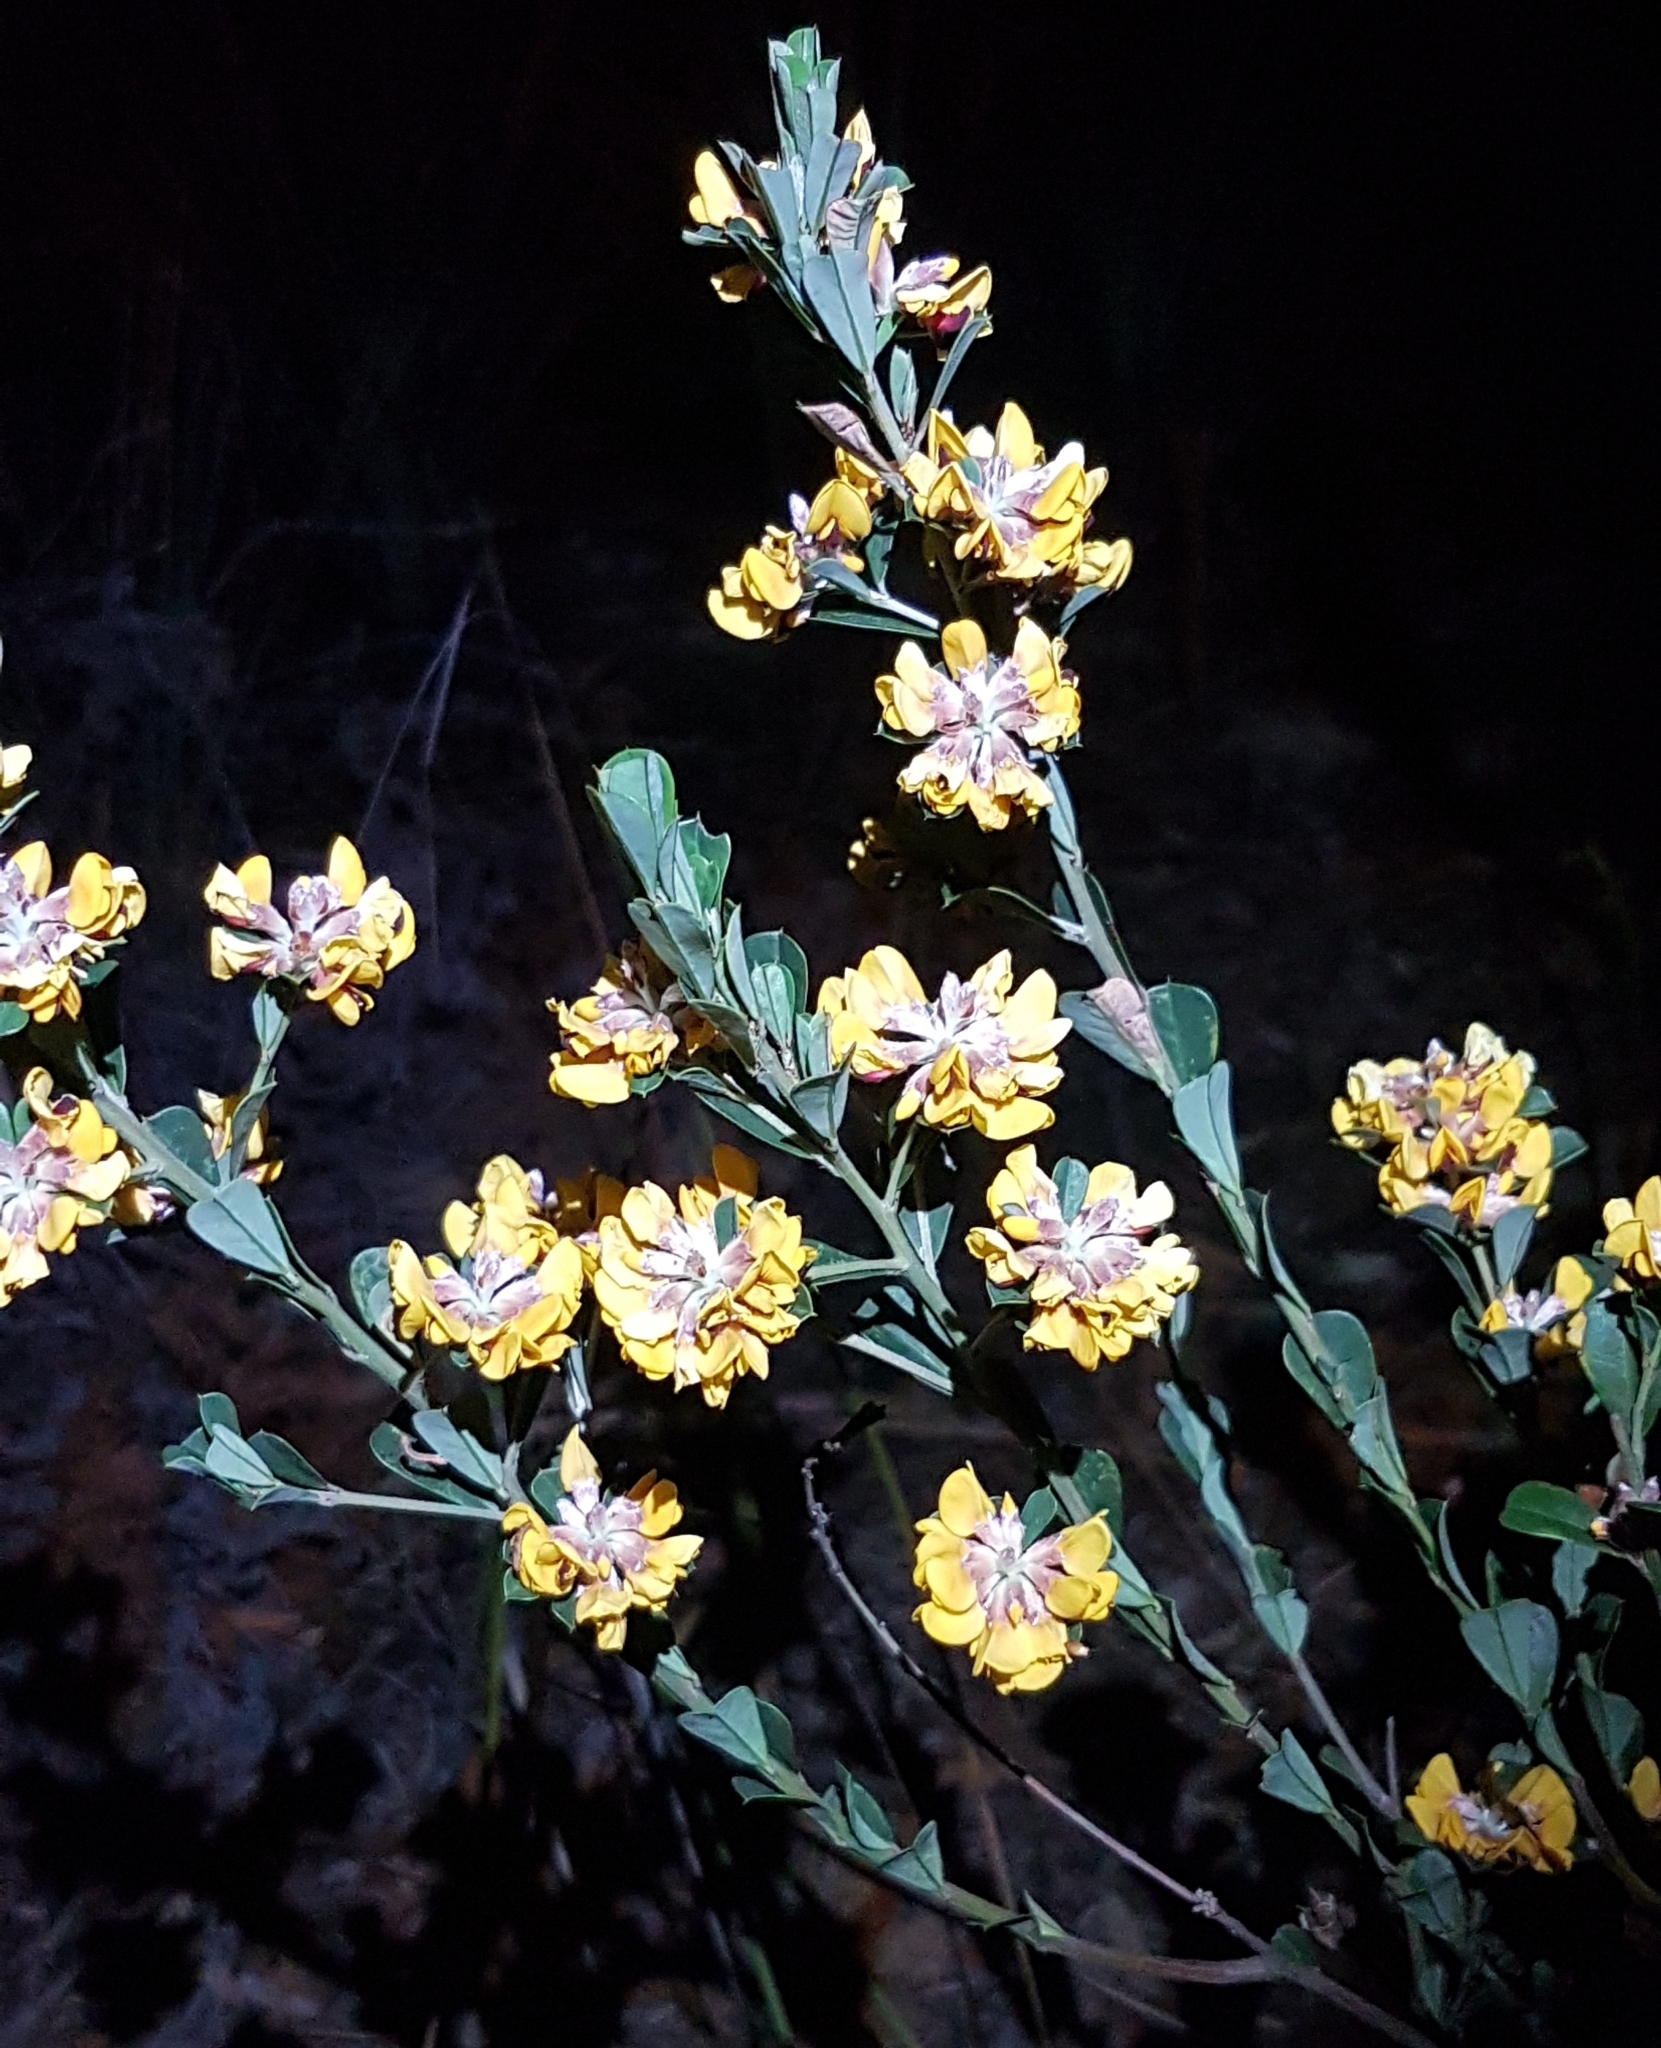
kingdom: Plantae
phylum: Tracheophyta
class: Magnoliopsida
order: Fabales
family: Fabaceae
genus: Pultenaea
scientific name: Pultenaea daphnoides
